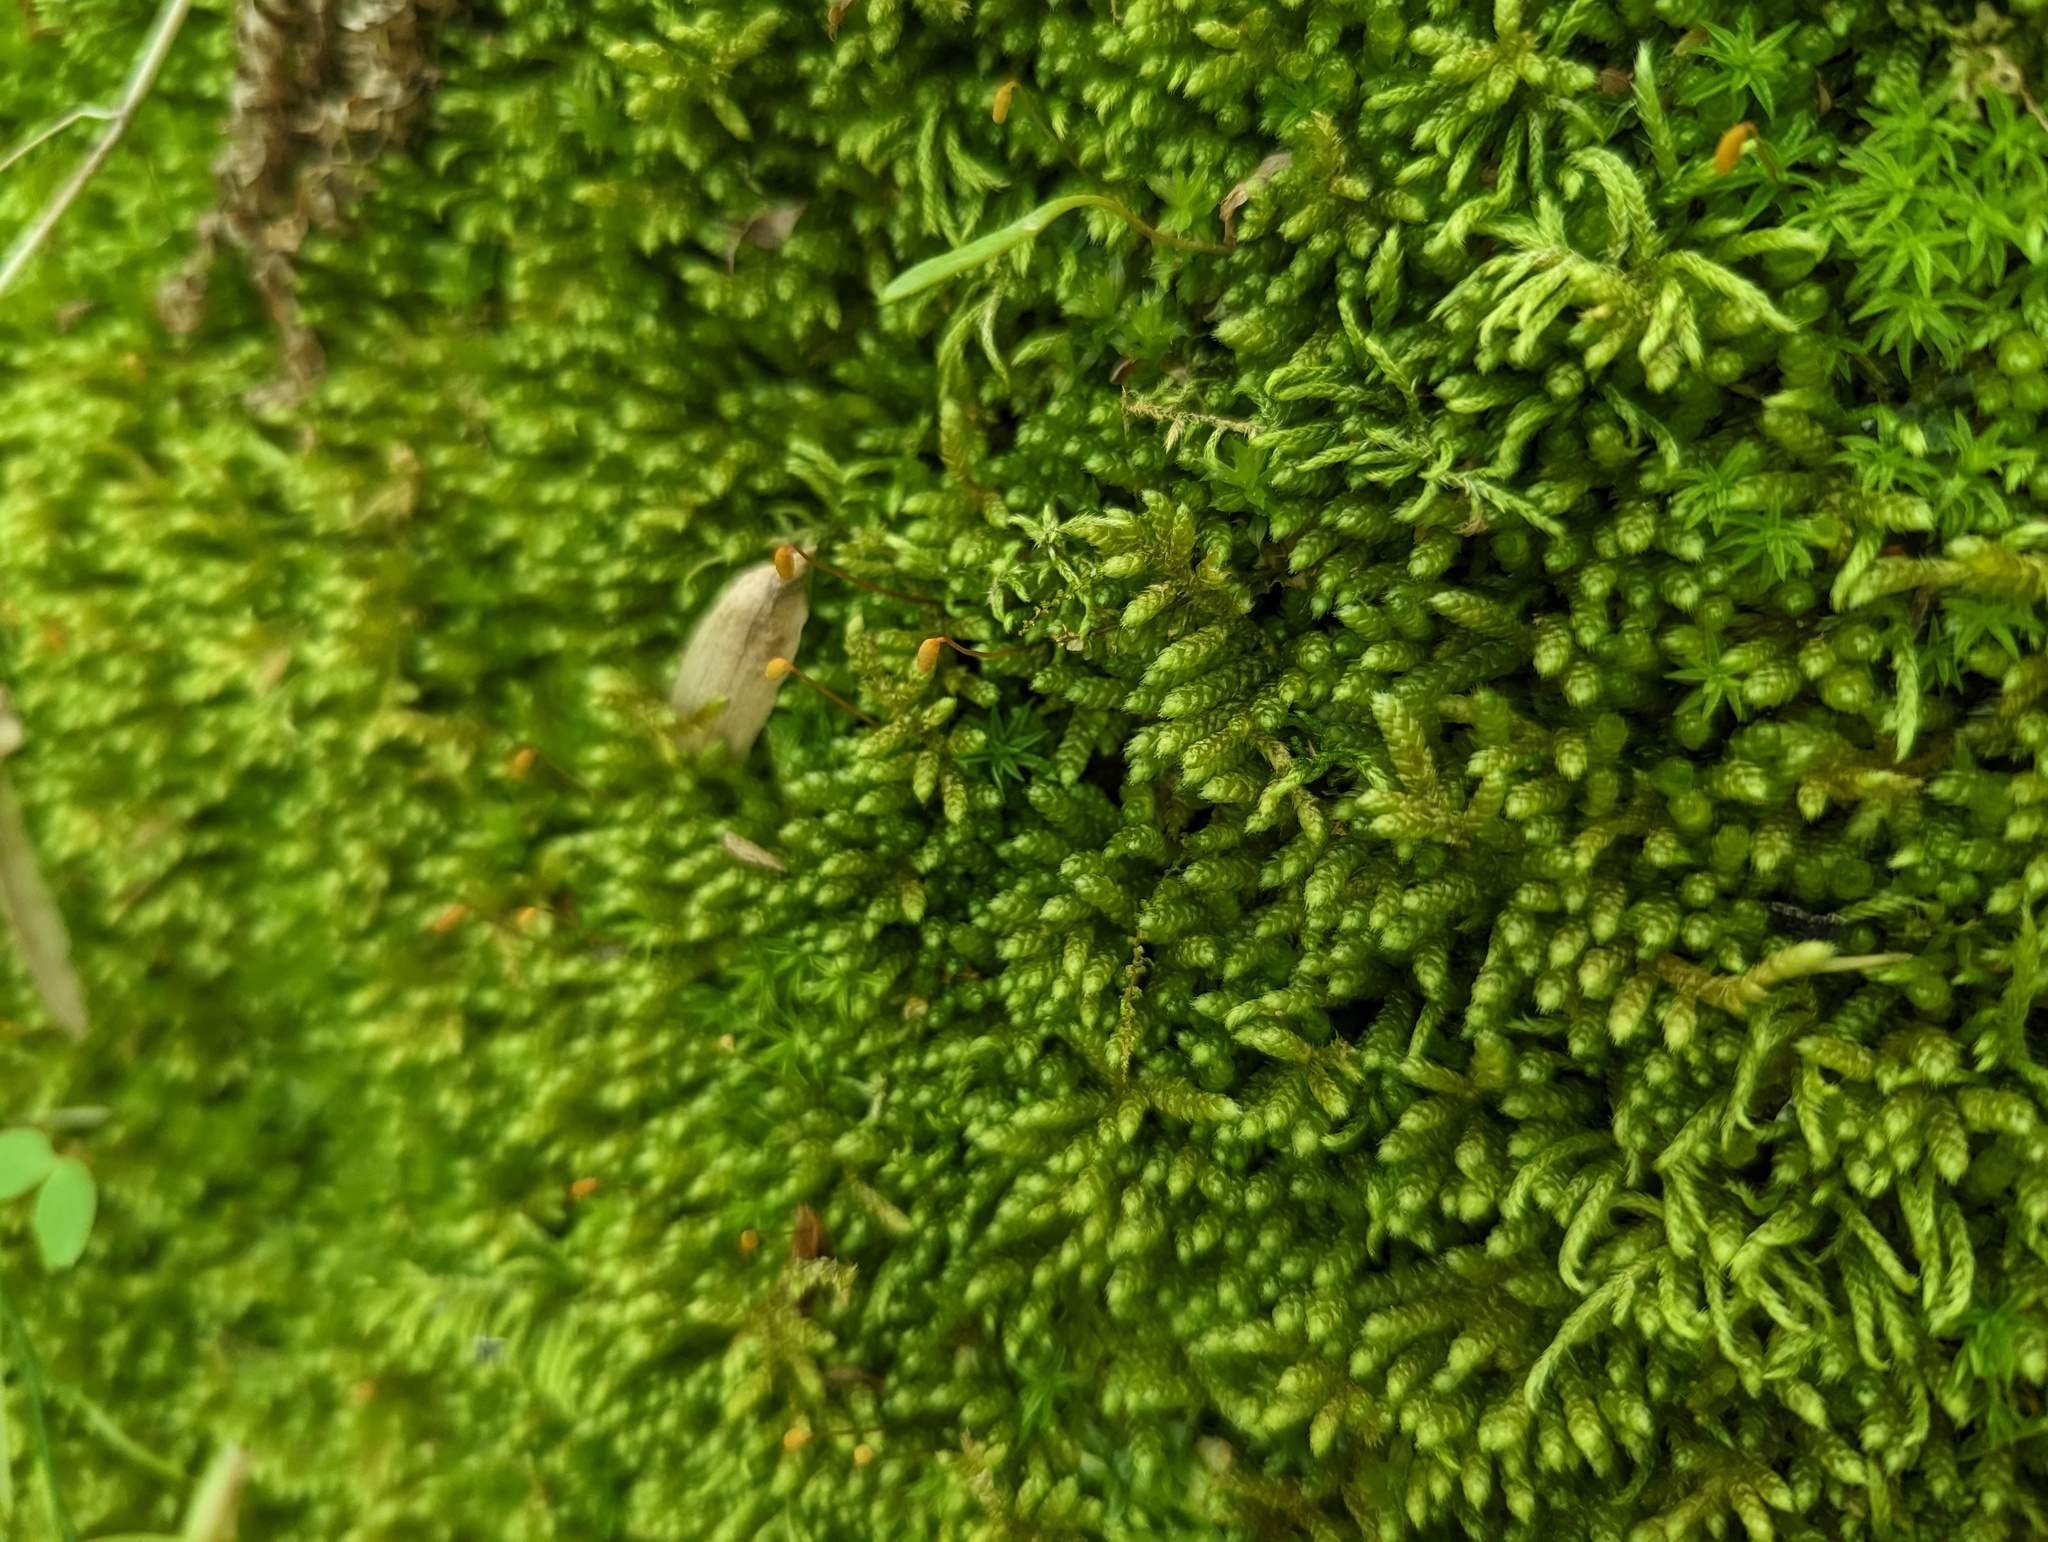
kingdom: Plantae
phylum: Bryophyta
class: Bryopsida
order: Hypnales
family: Brachytheciaceae
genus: Bryoandersonia
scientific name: Bryoandersonia illecebra
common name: Spoon-leaved moss
